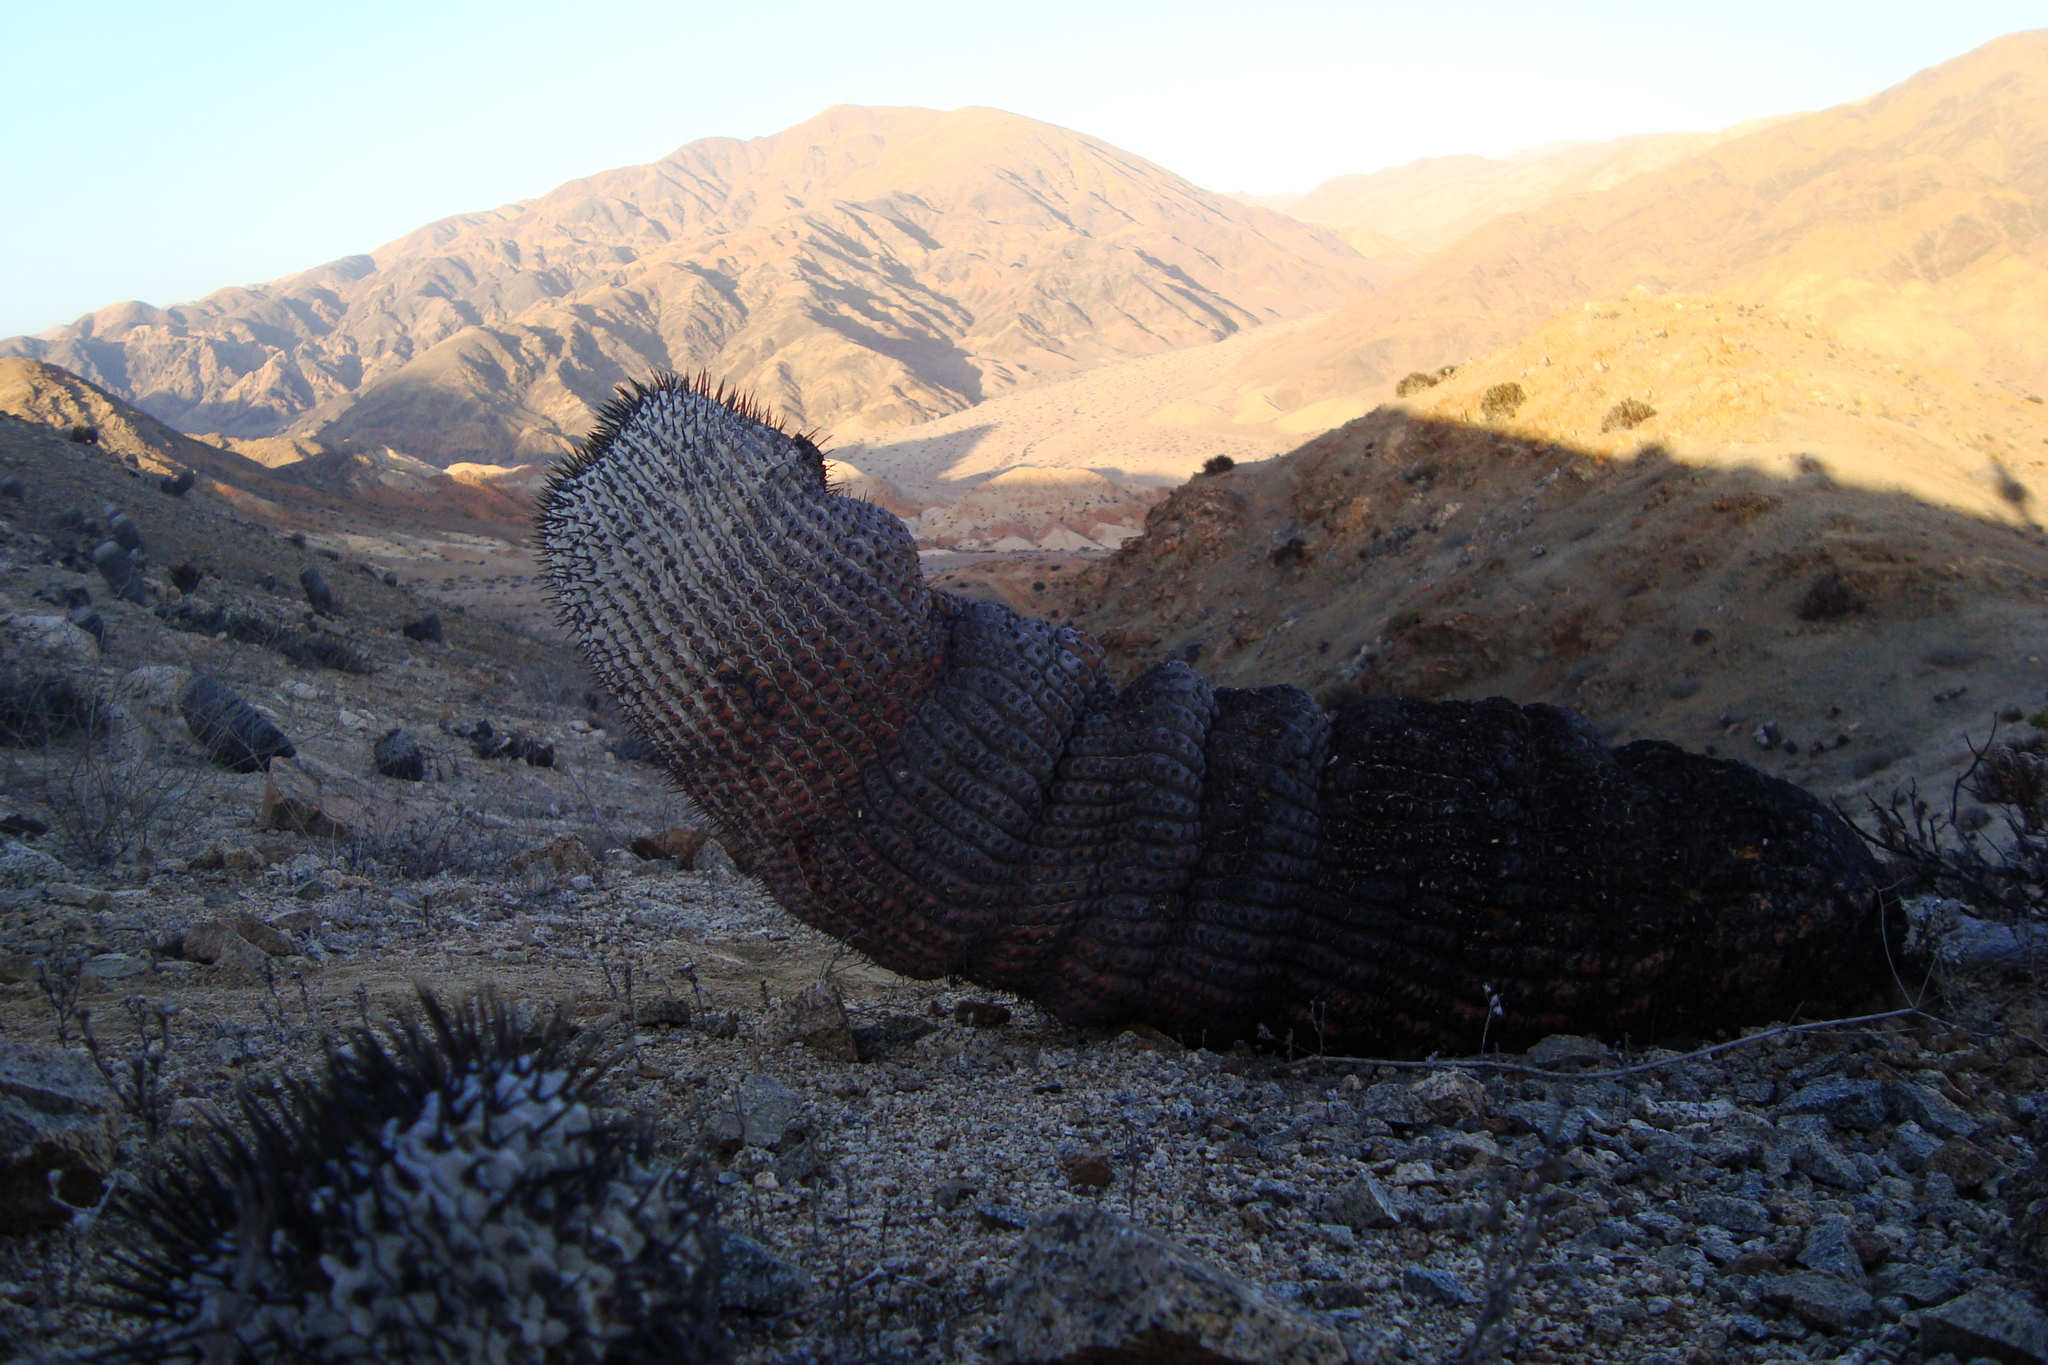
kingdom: Plantae
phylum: Tracheophyta
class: Magnoliopsida
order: Caryophyllales
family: Cactaceae
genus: Copiapoa
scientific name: Copiapoa cinerea
